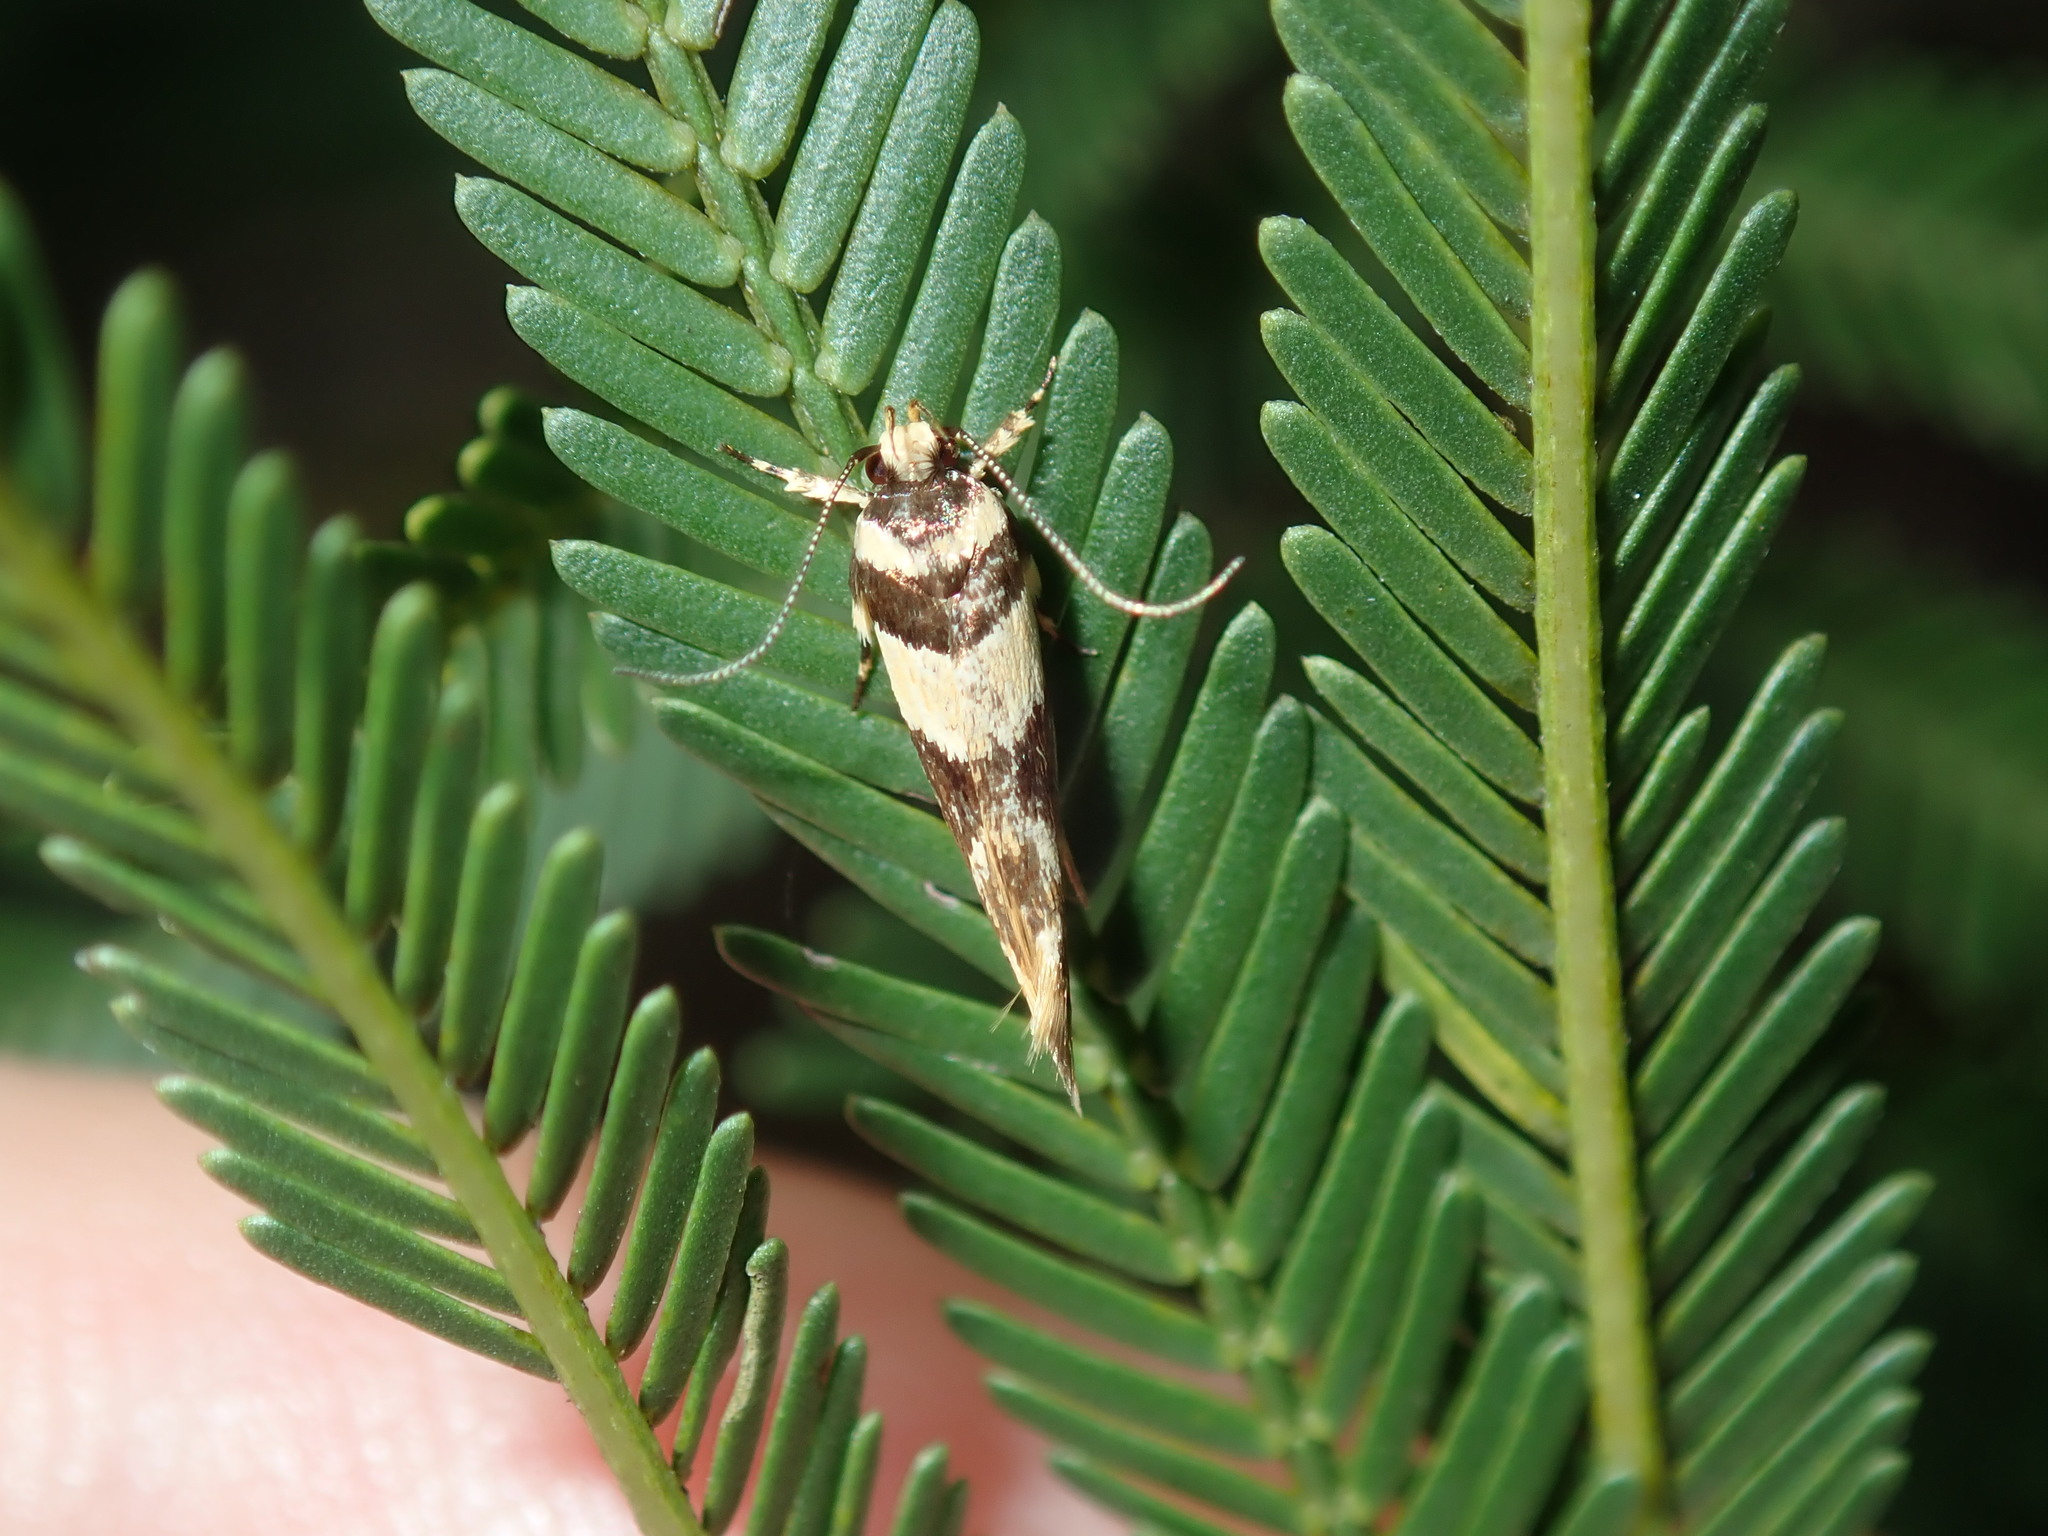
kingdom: Animalia
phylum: Arthropoda
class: Insecta
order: Lepidoptera
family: Cosmopterigidae
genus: Macrobathra
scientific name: Macrobathra desmotoma
